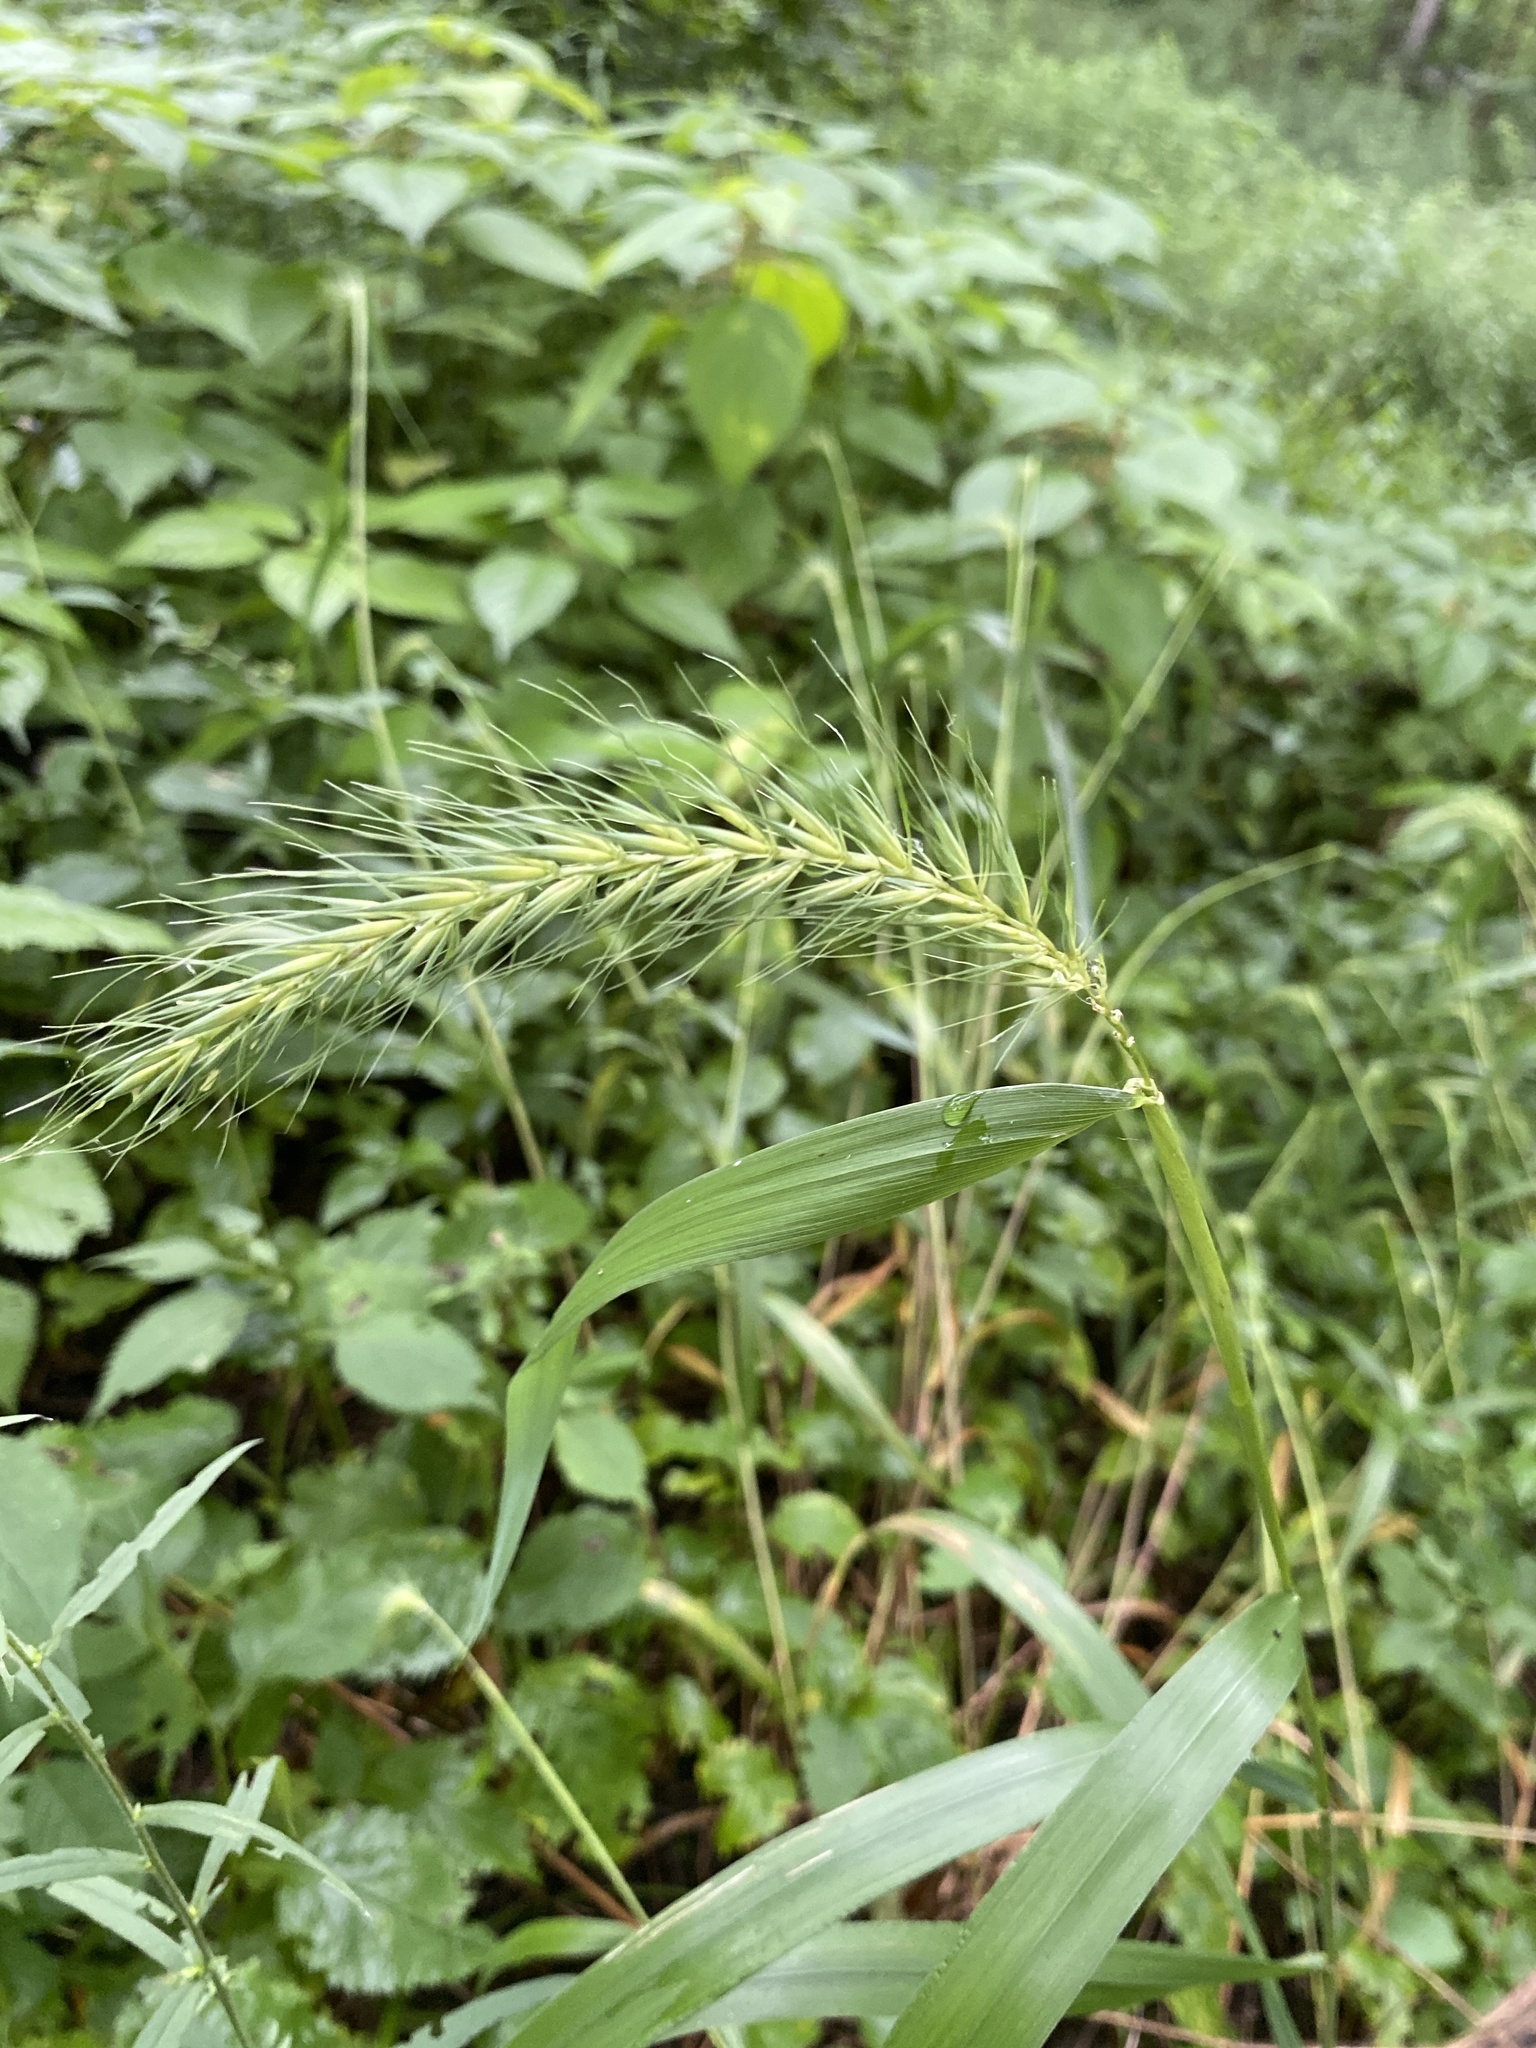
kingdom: Plantae
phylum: Tracheophyta
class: Liliopsida
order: Poales
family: Poaceae
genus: Elymus
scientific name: Elymus riparius
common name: Eastern riverbank wild rye
